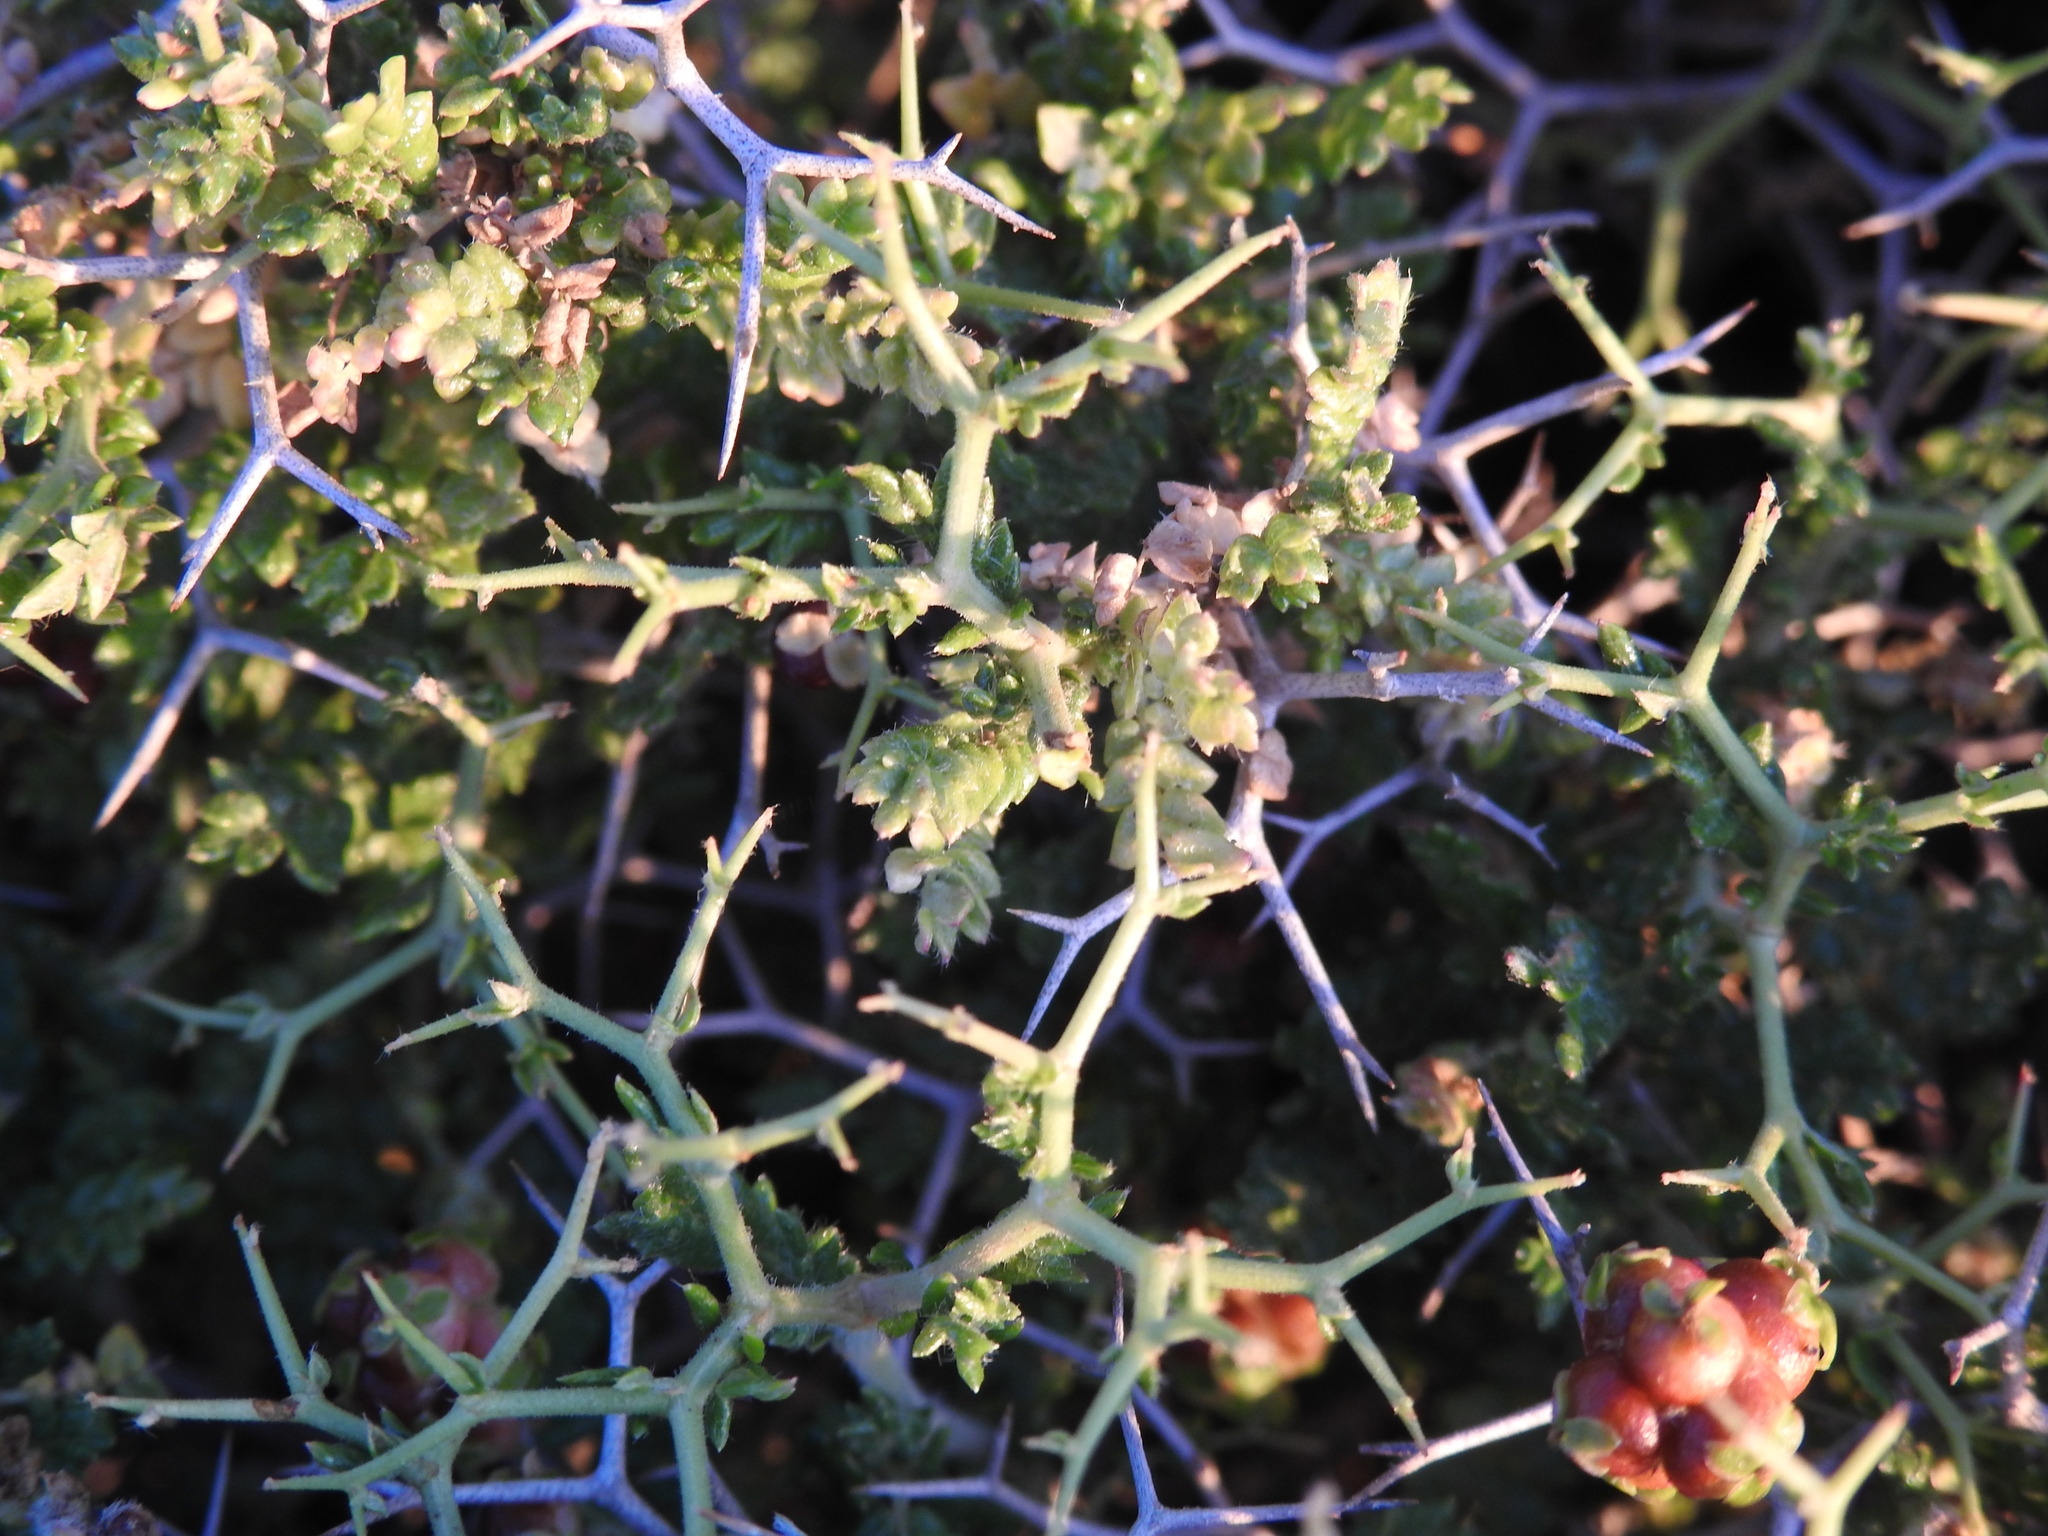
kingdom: Plantae
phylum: Tracheophyta
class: Magnoliopsida
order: Rosales
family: Rosaceae
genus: Sarcopoterium
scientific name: Sarcopoterium spinosum
